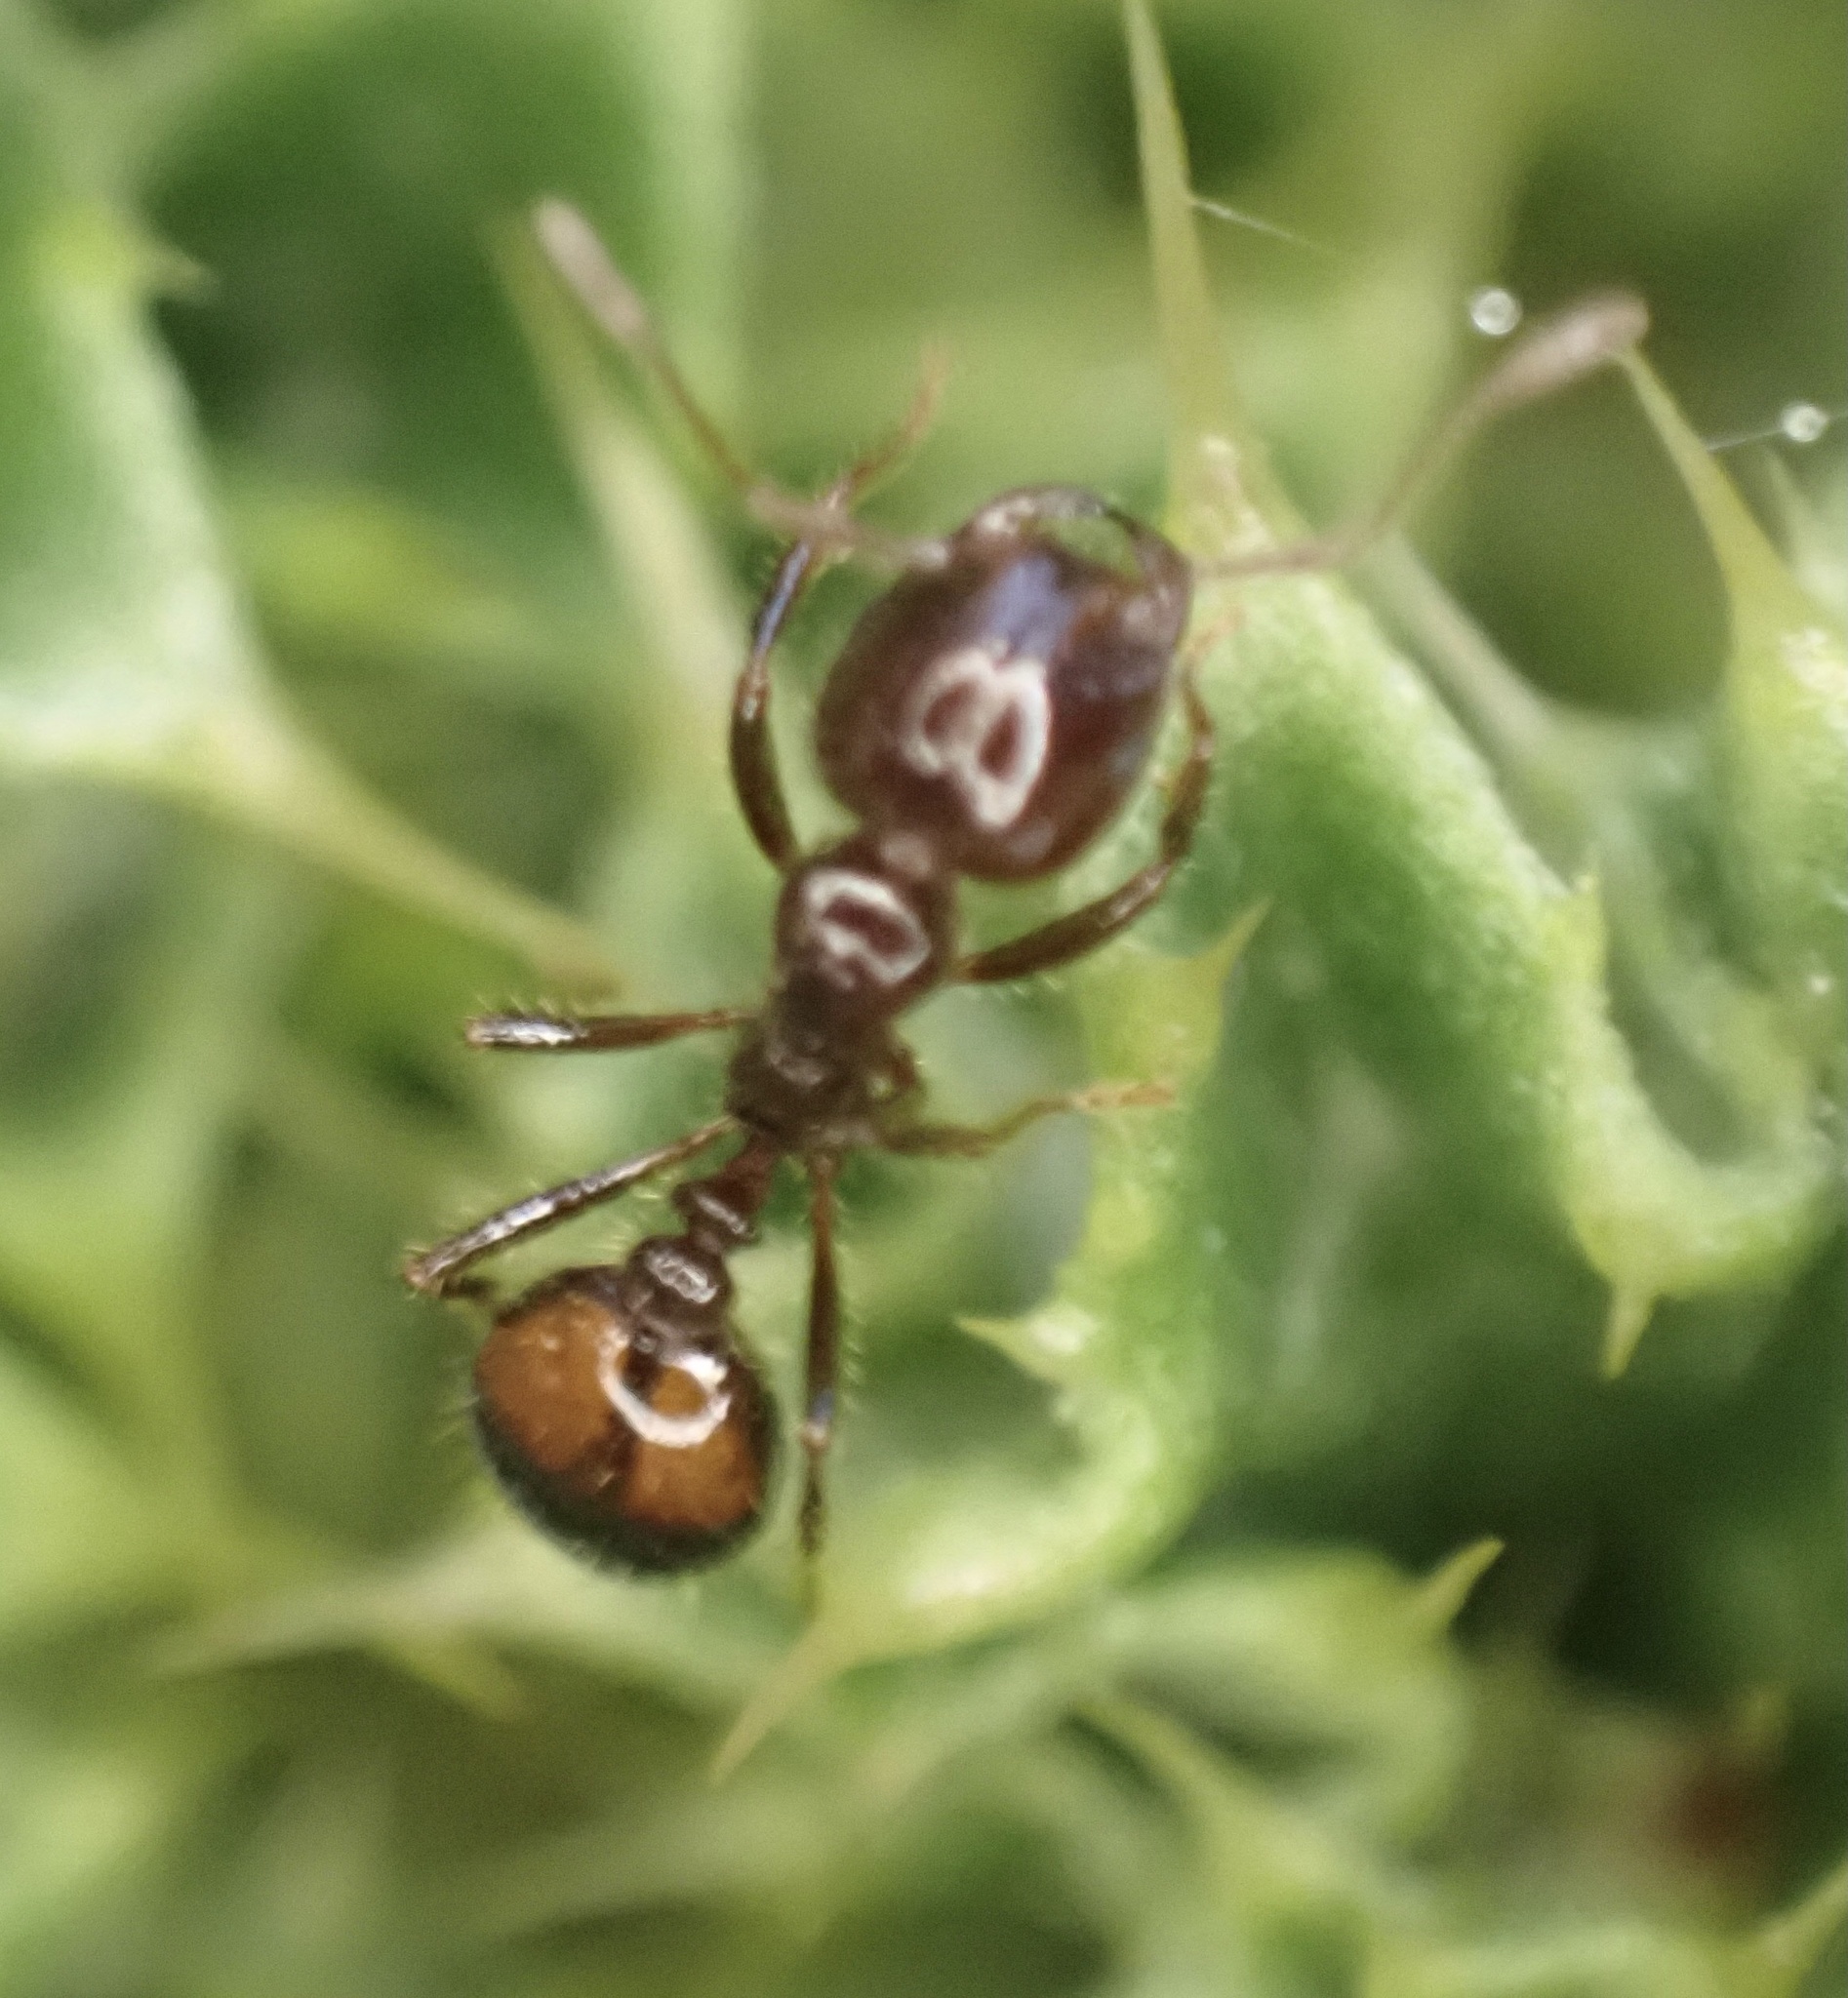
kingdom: Animalia
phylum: Arthropoda
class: Insecta
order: Hymenoptera
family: Formicidae
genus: Solenopsis
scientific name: Solenopsis
